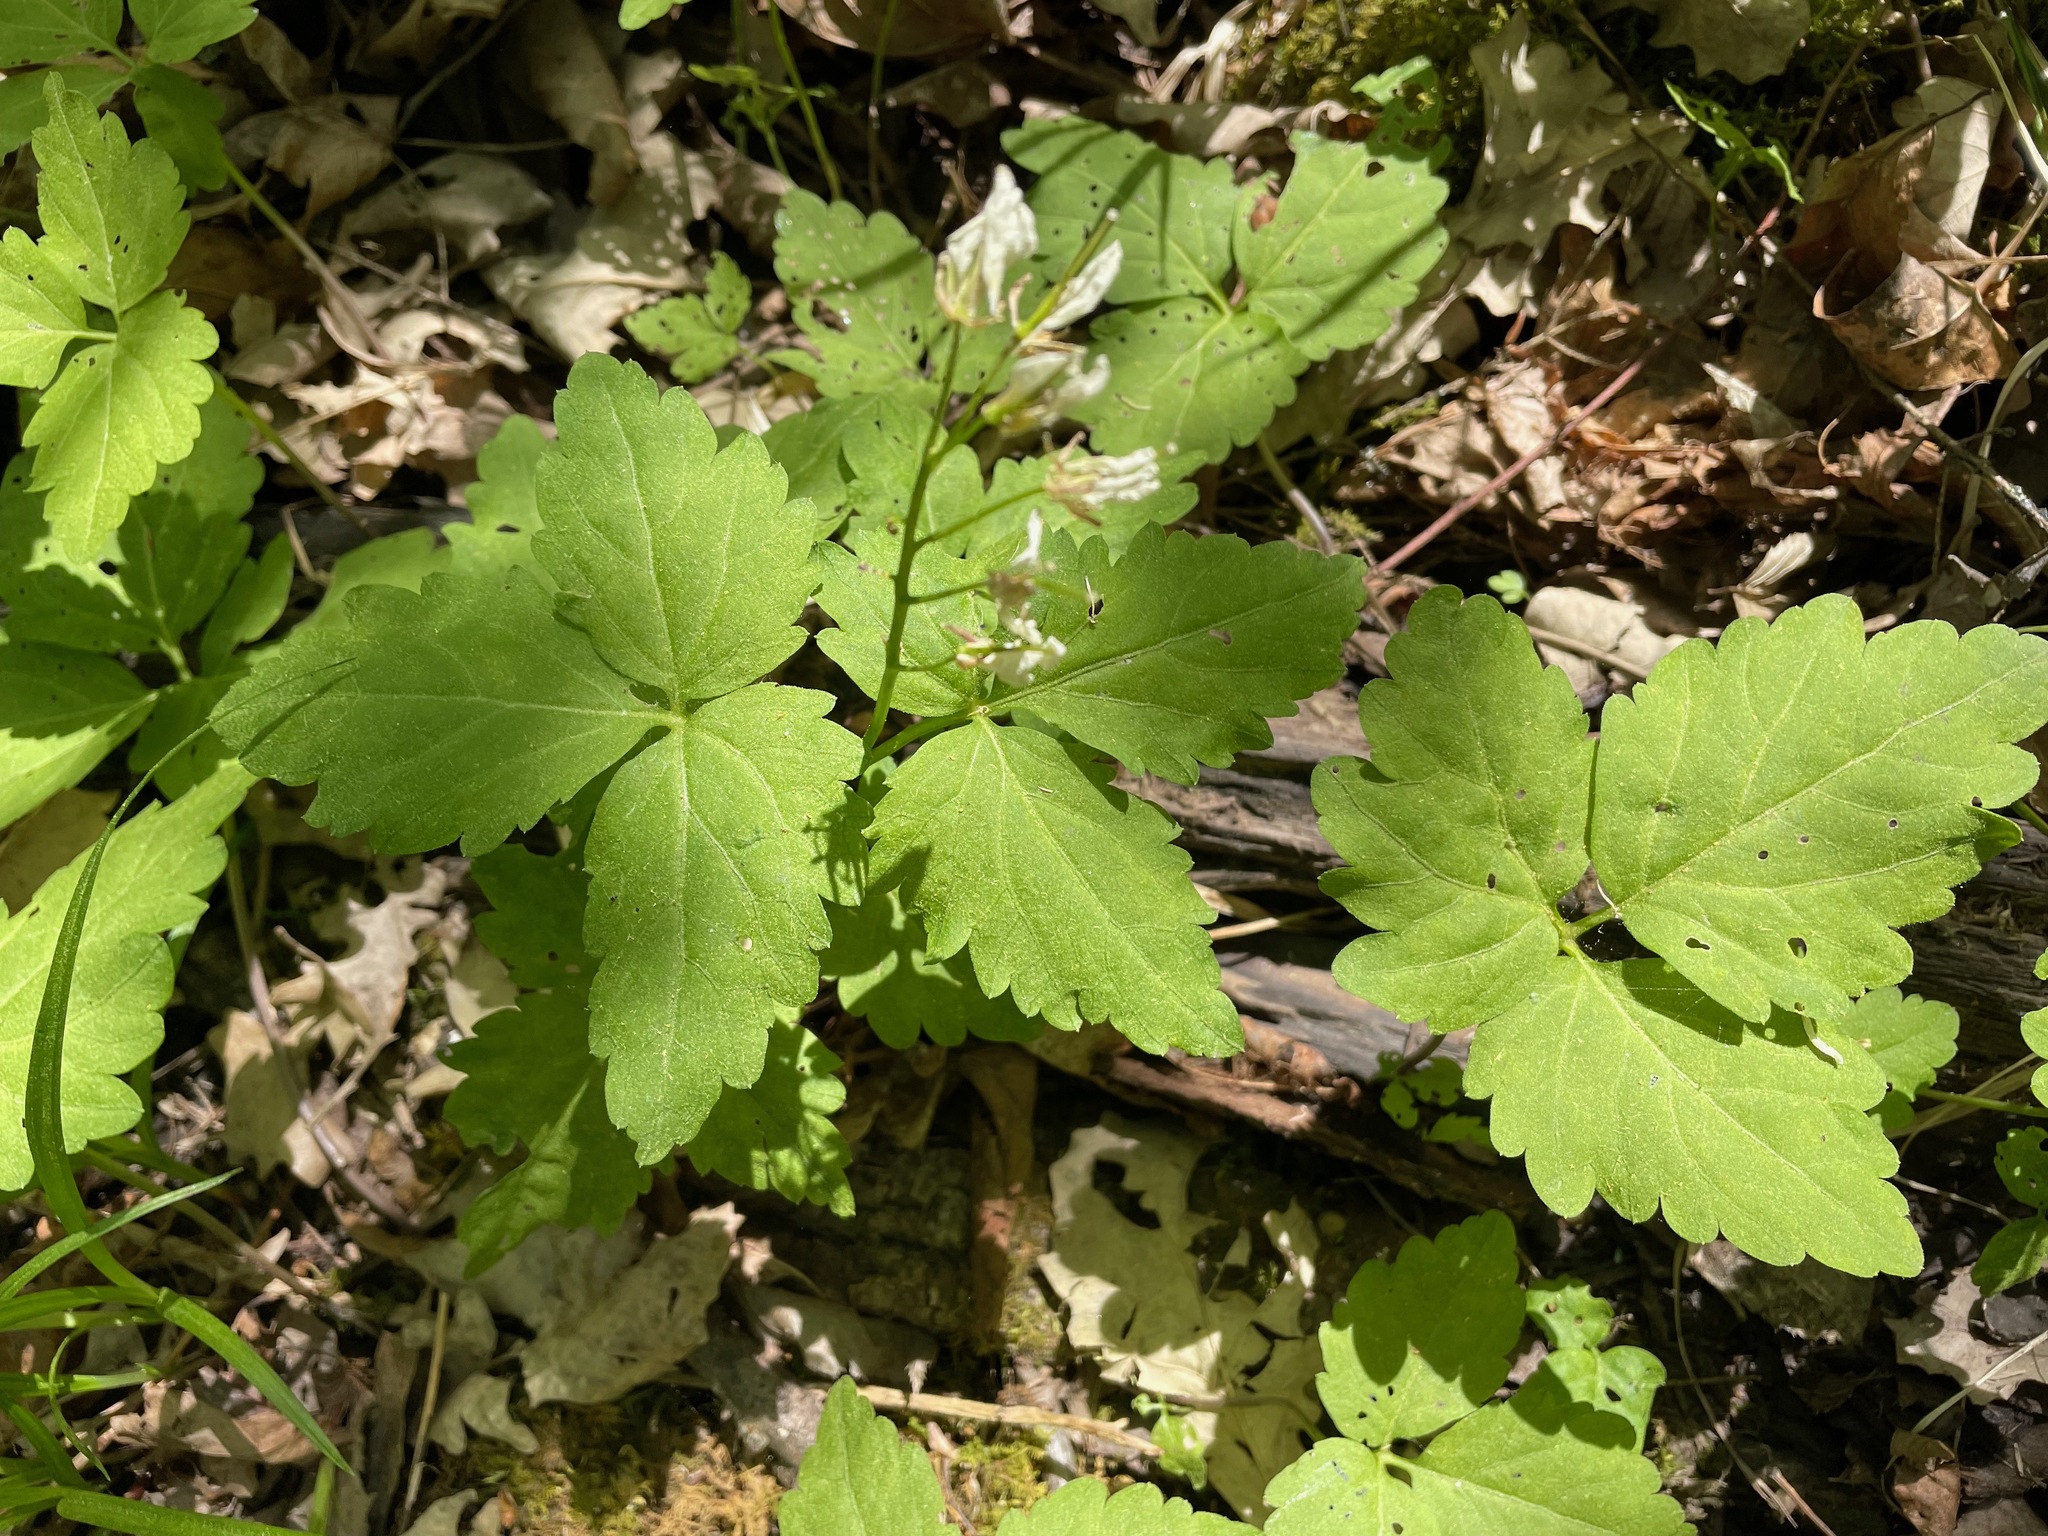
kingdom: Plantae
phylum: Tracheophyta
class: Magnoliopsida
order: Brassicales
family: Brassicaceae
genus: Cardamine
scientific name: Cardamine diphylla
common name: Broad-leaved toothwort
